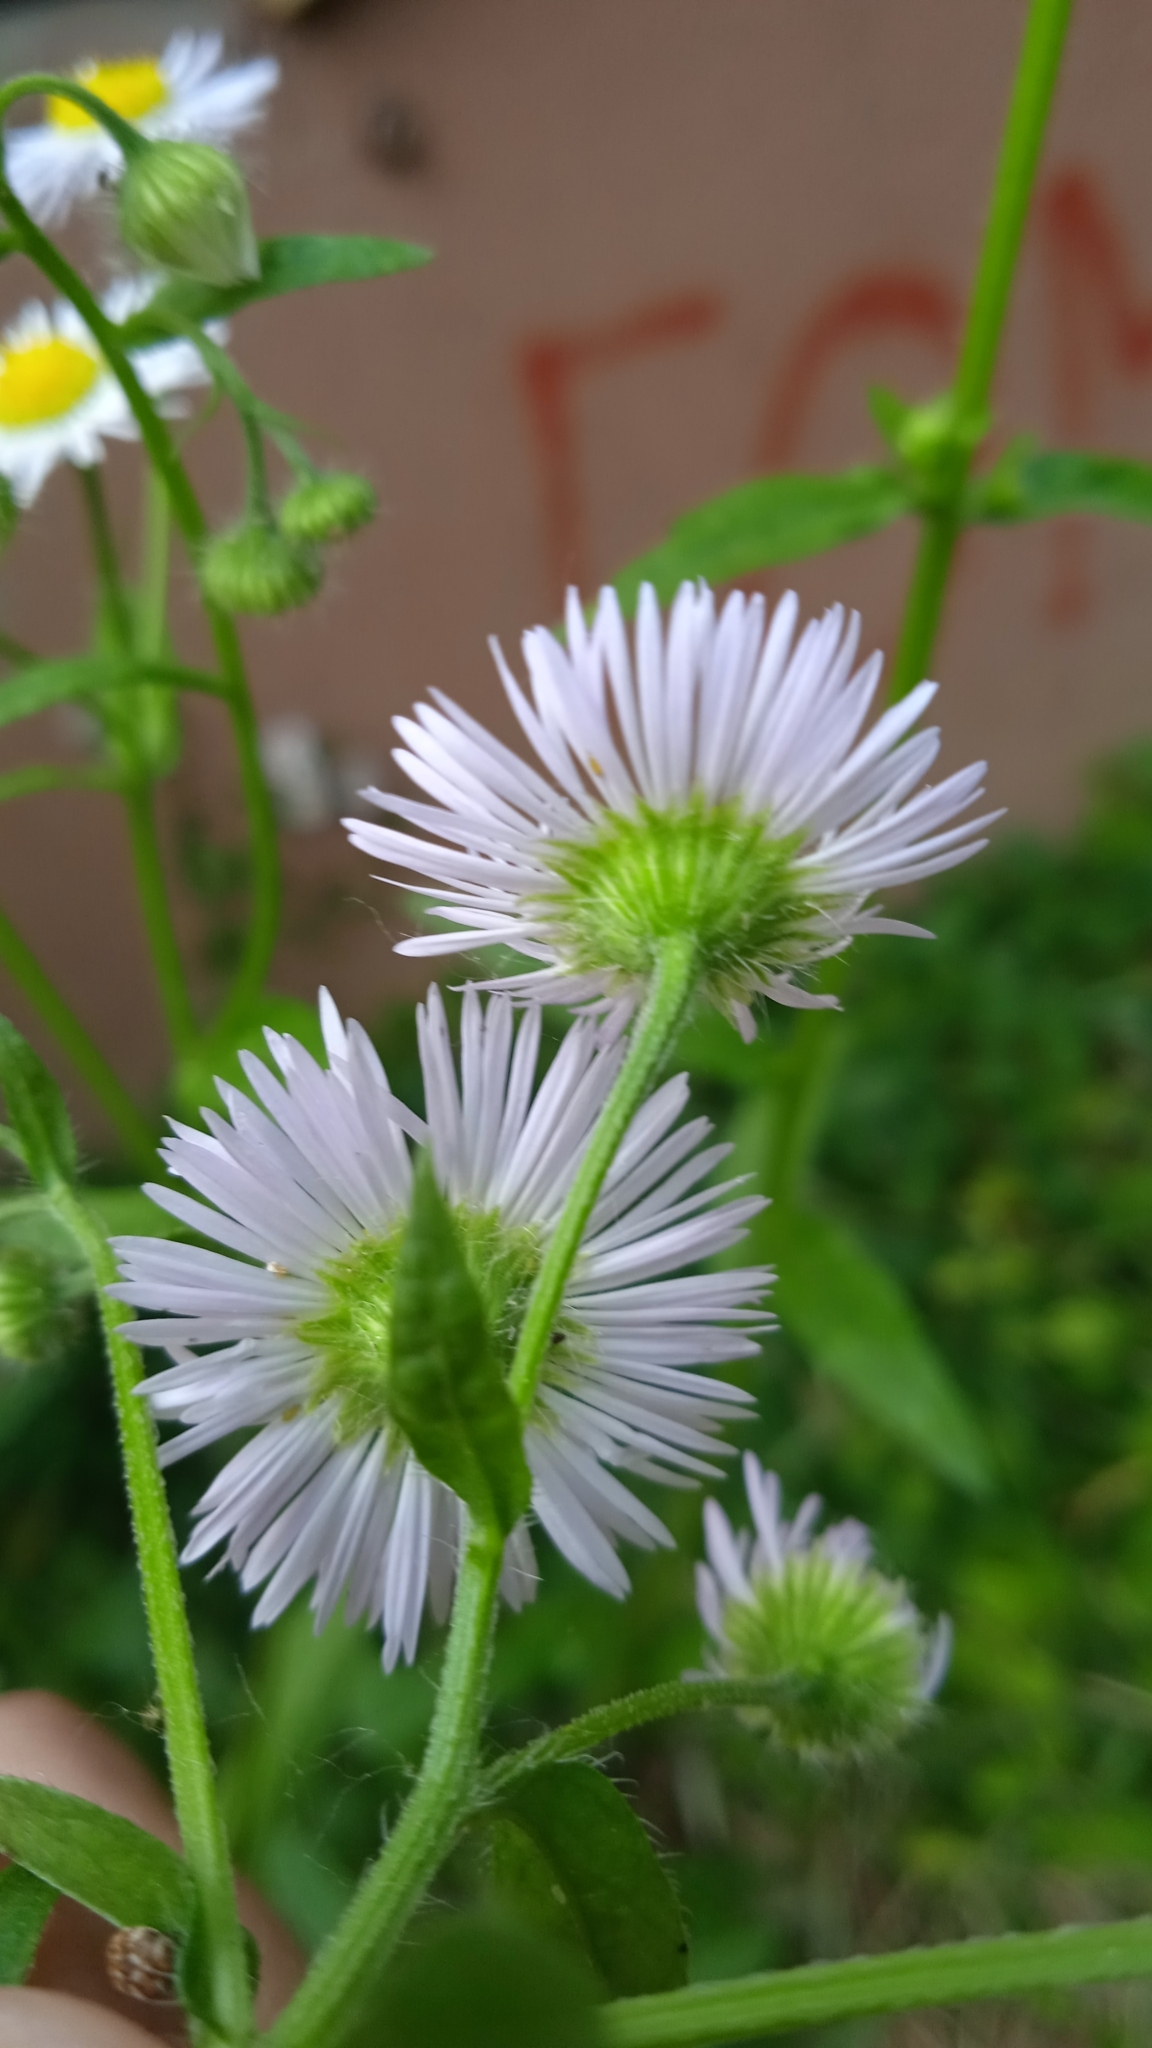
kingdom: Plantae
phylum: Tracheophyta
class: Magnoliopsida
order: Asterales
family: Asteraceae
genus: Erigeron
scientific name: Erigeron annuus
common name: Tall fleabane
